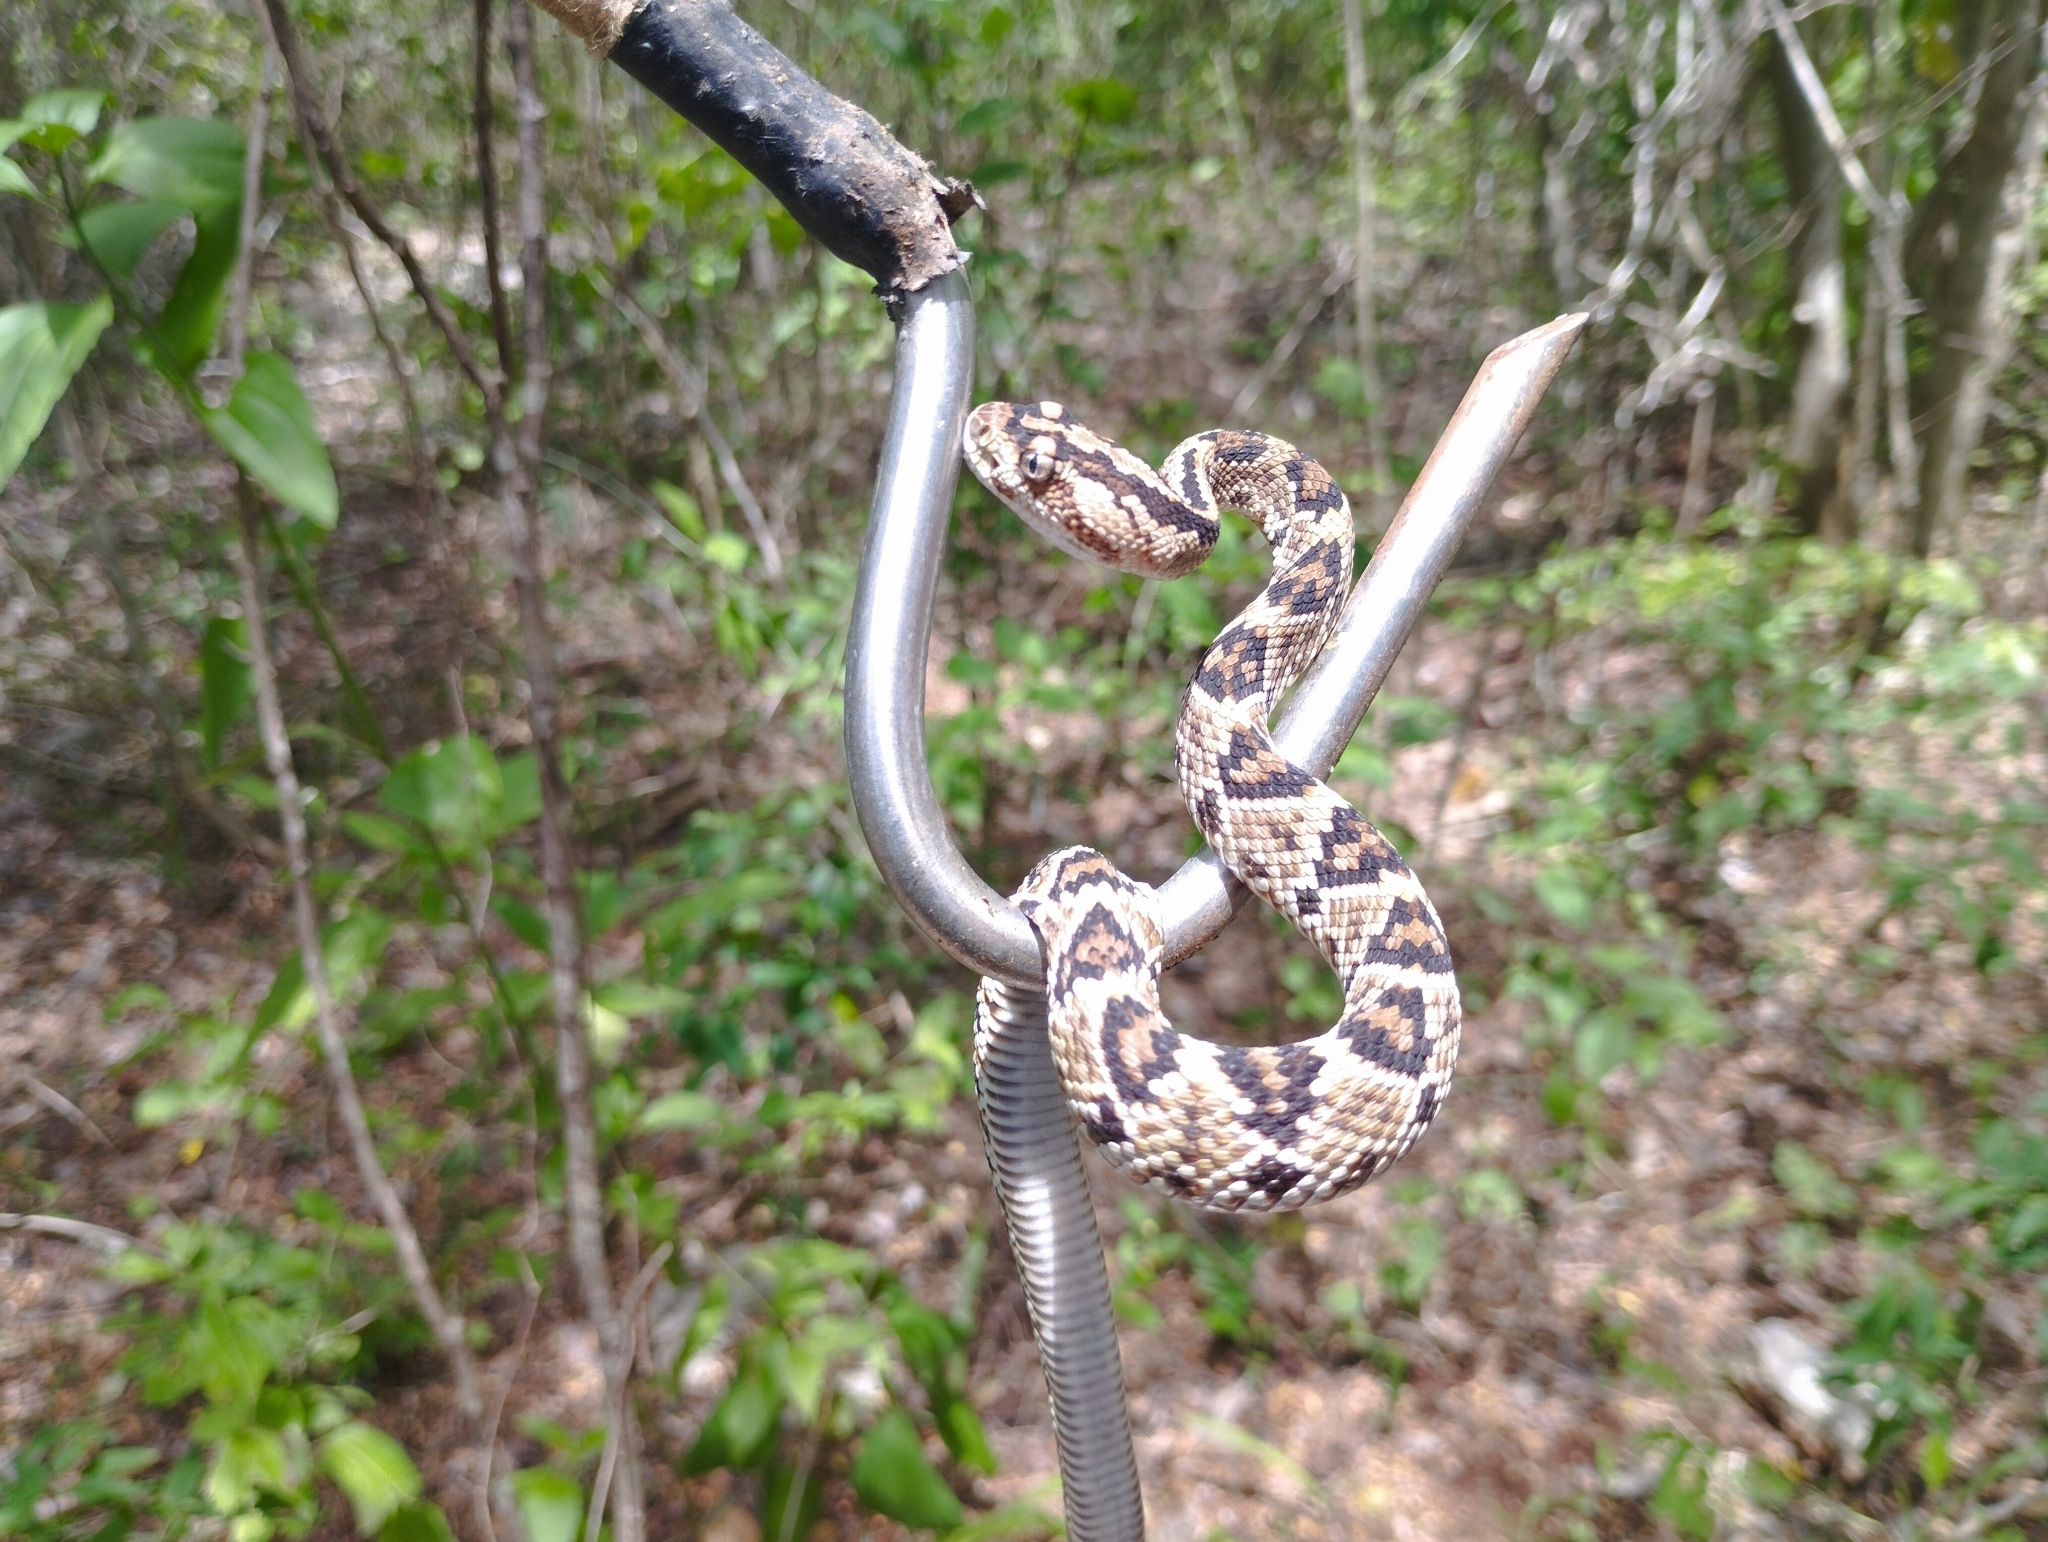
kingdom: Animalia
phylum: Chordata
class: Squamata
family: Viperidae
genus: Crotalus
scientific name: Crotalus tzabcan
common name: Yucatan neotropical rattlesnake
